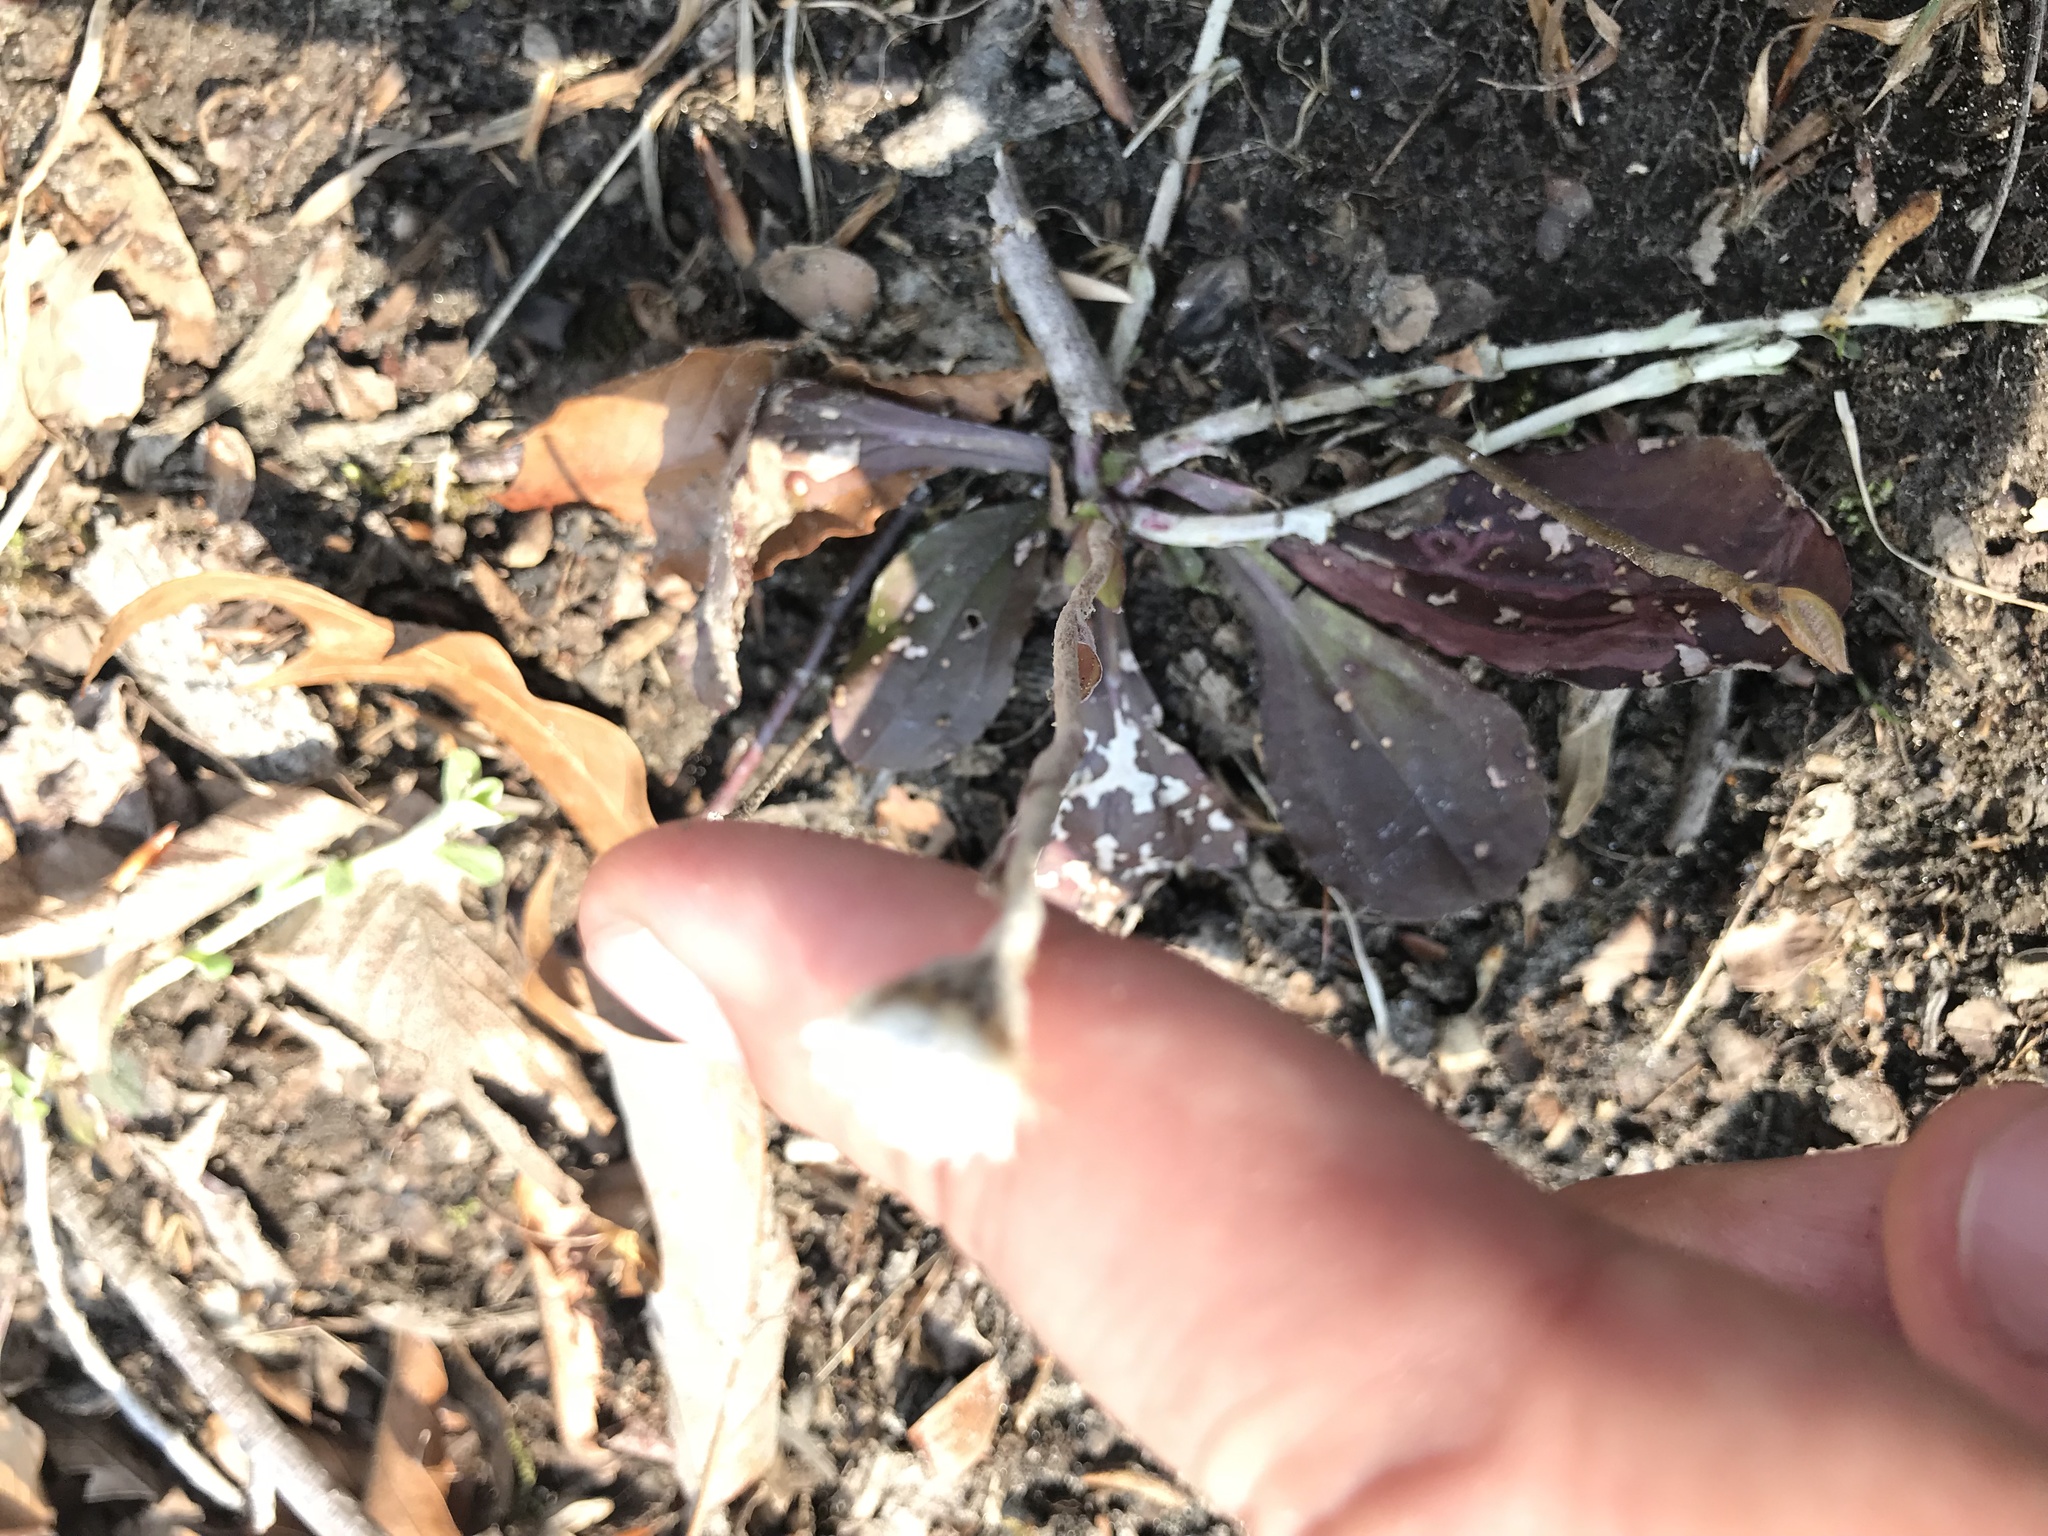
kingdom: Plantae
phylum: Tracheophyta
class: Magnoliopsida
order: Asterales
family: Asteraceae
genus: Antennaria
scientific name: Antennaria solitaria
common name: Single-head pussytoes
